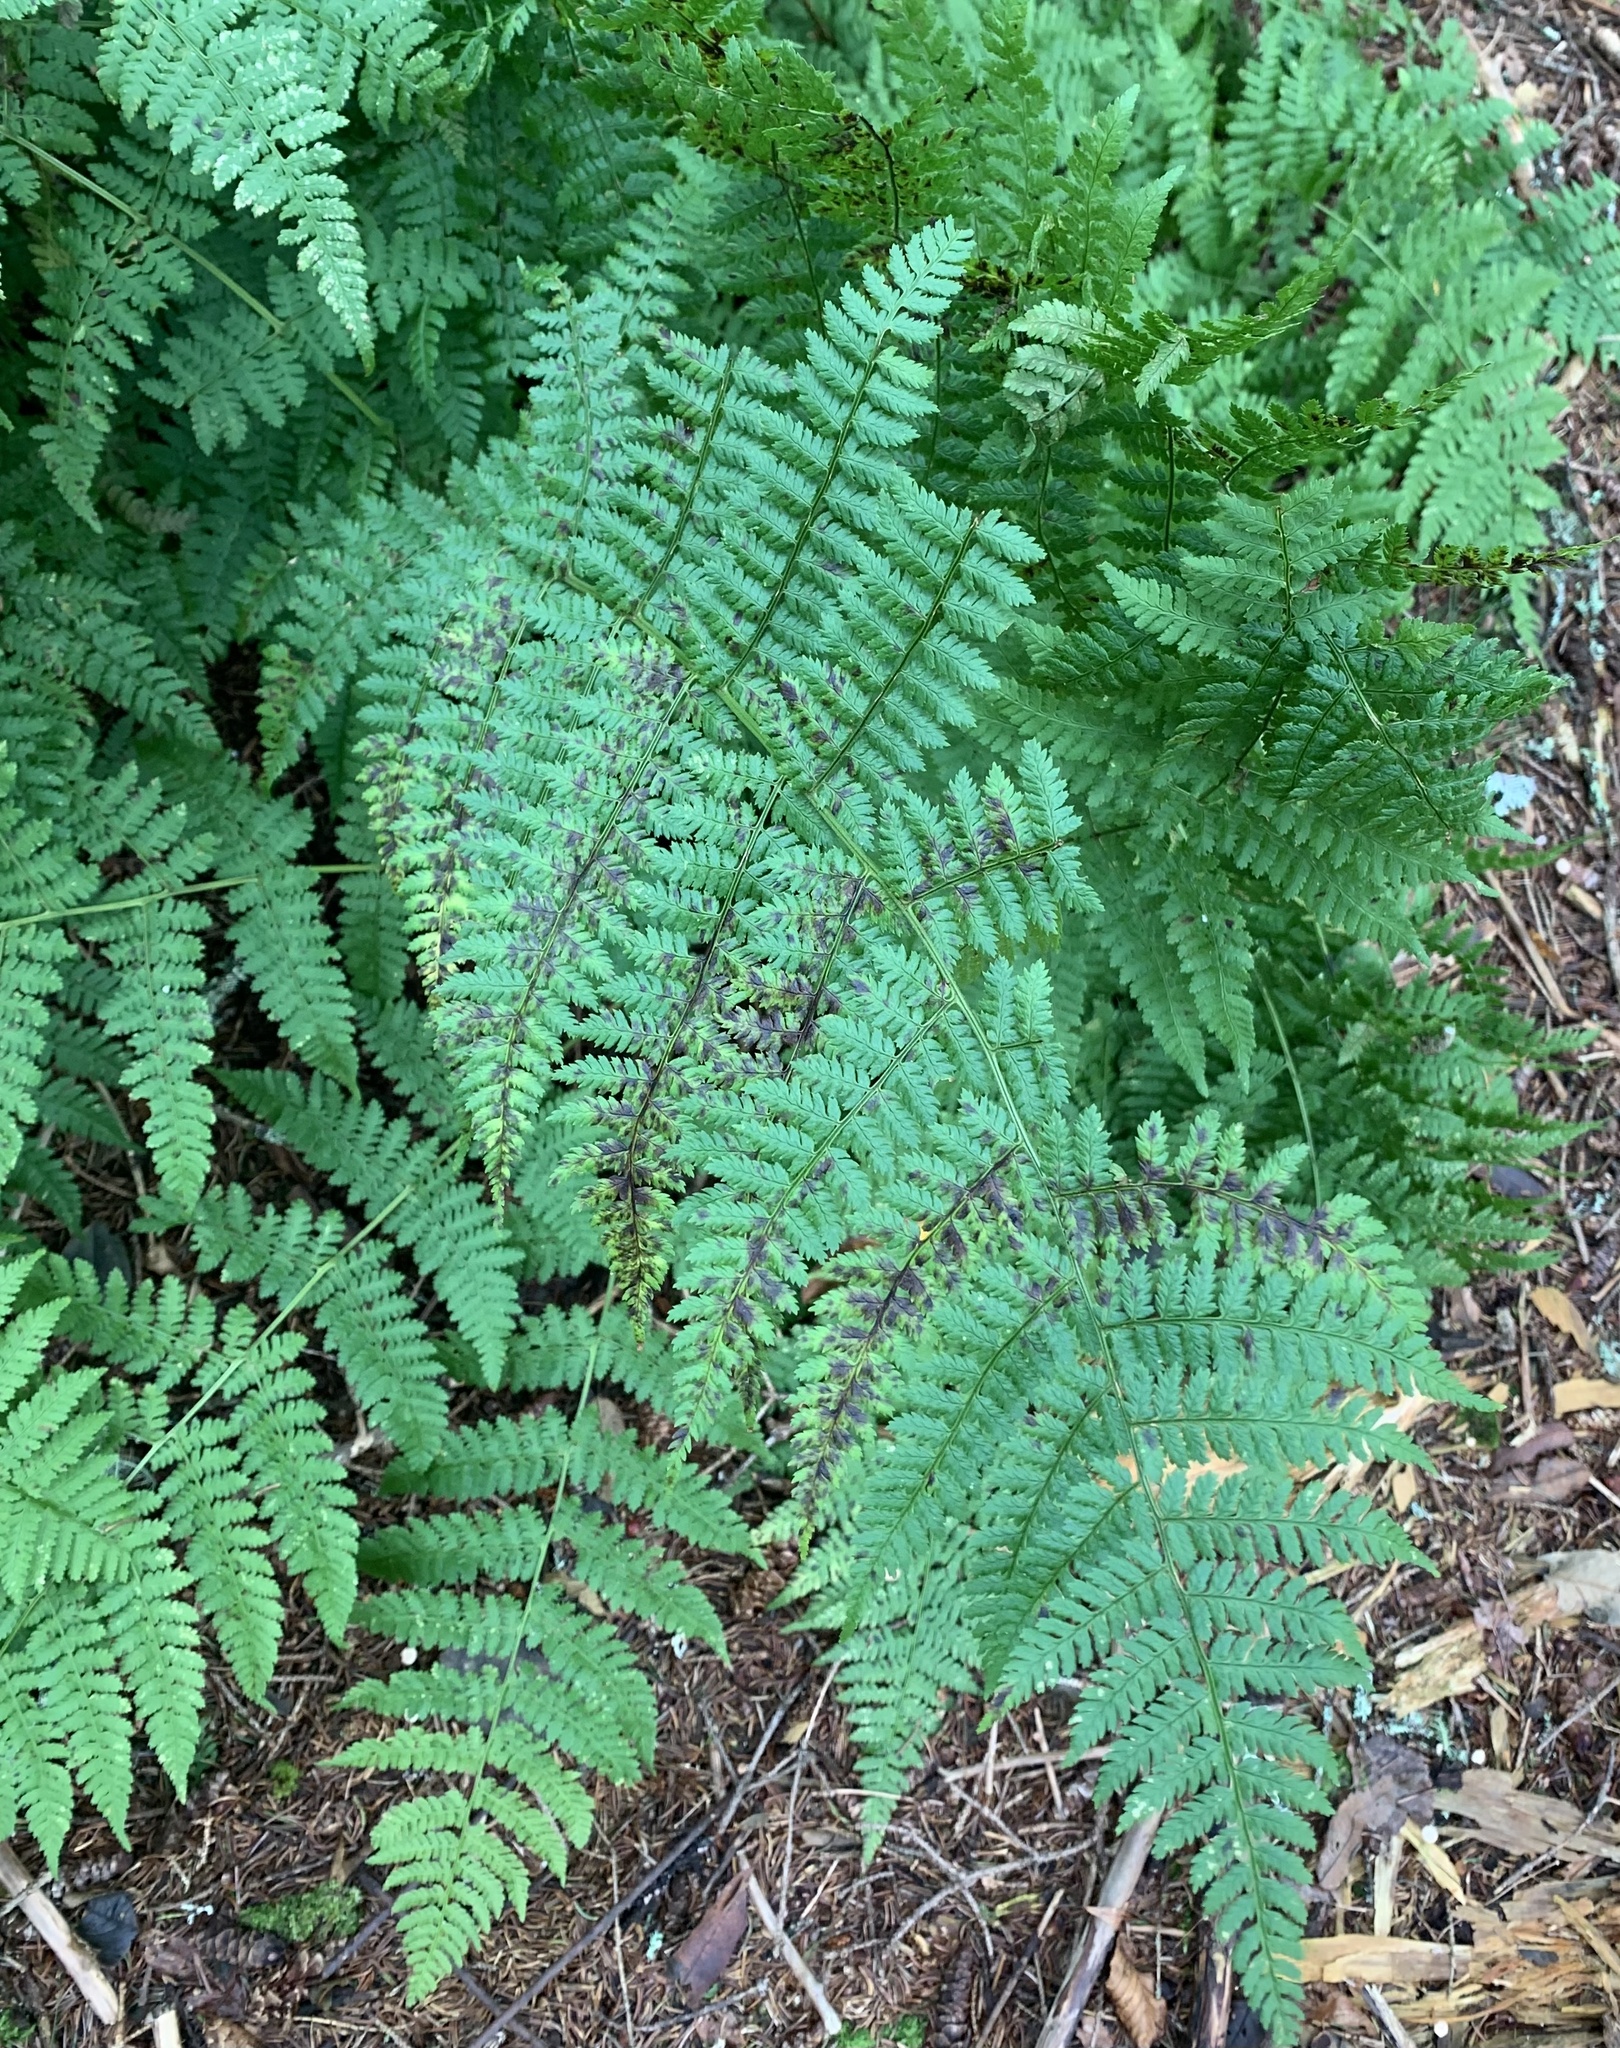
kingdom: Plantae
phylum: Tracheophyta
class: Polypodiopsida
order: Polypodiales
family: Dryopteridaceae
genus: Dryopteris
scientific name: Dryopteris intermedia
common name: Evergreen wood fern
